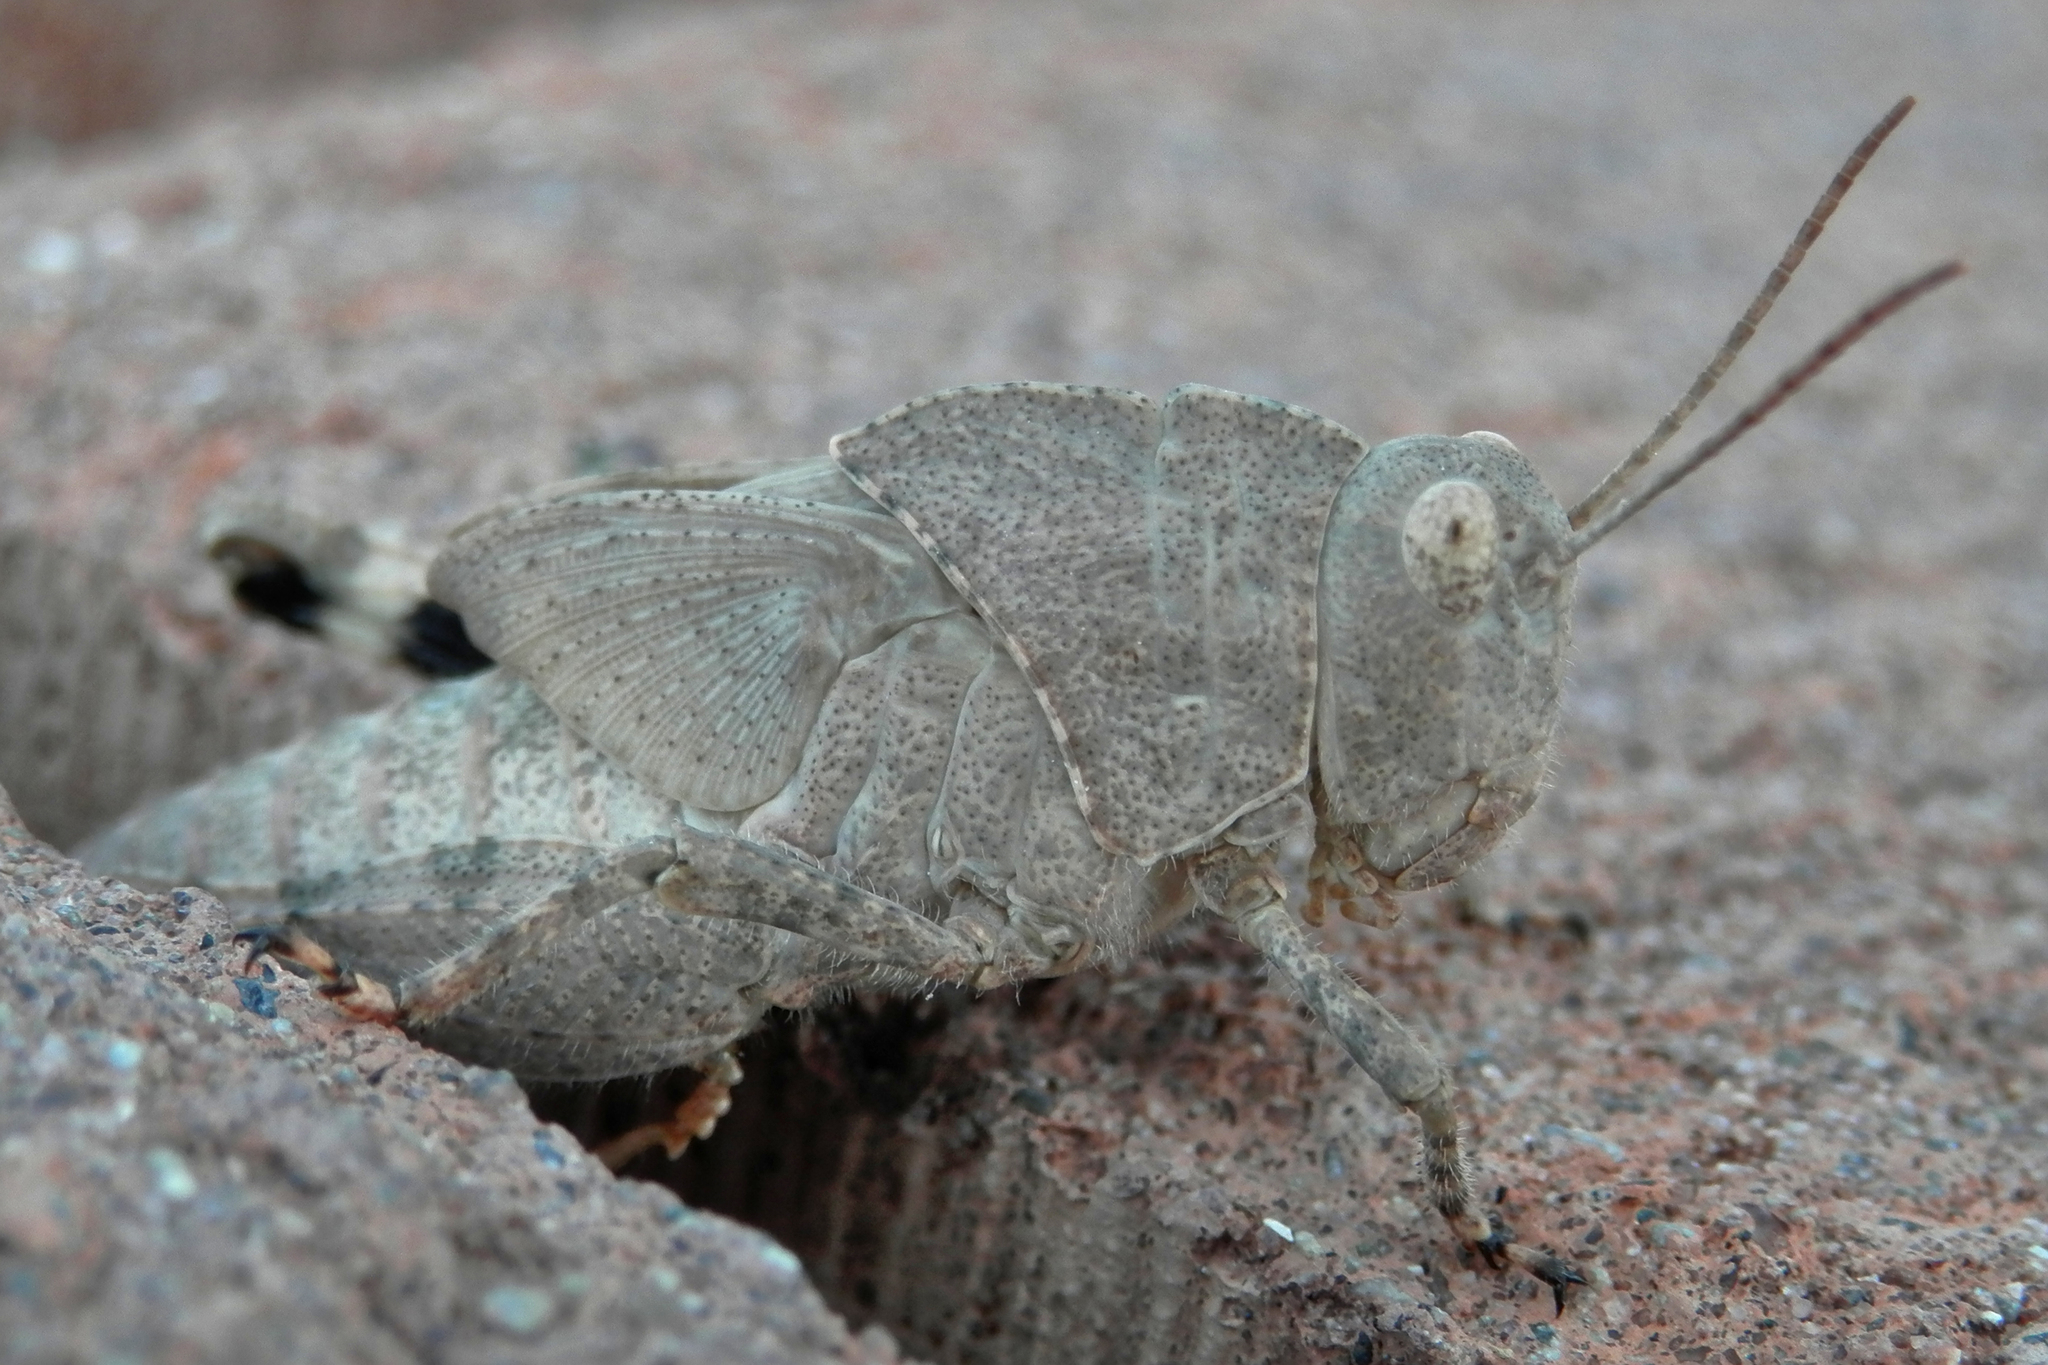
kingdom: Animalia
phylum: Arthropoda
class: Insecta
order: Orthoptera
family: Acrididae
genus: Dissosteira
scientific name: Dissosteira carolina
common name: Carolina grasshopper
